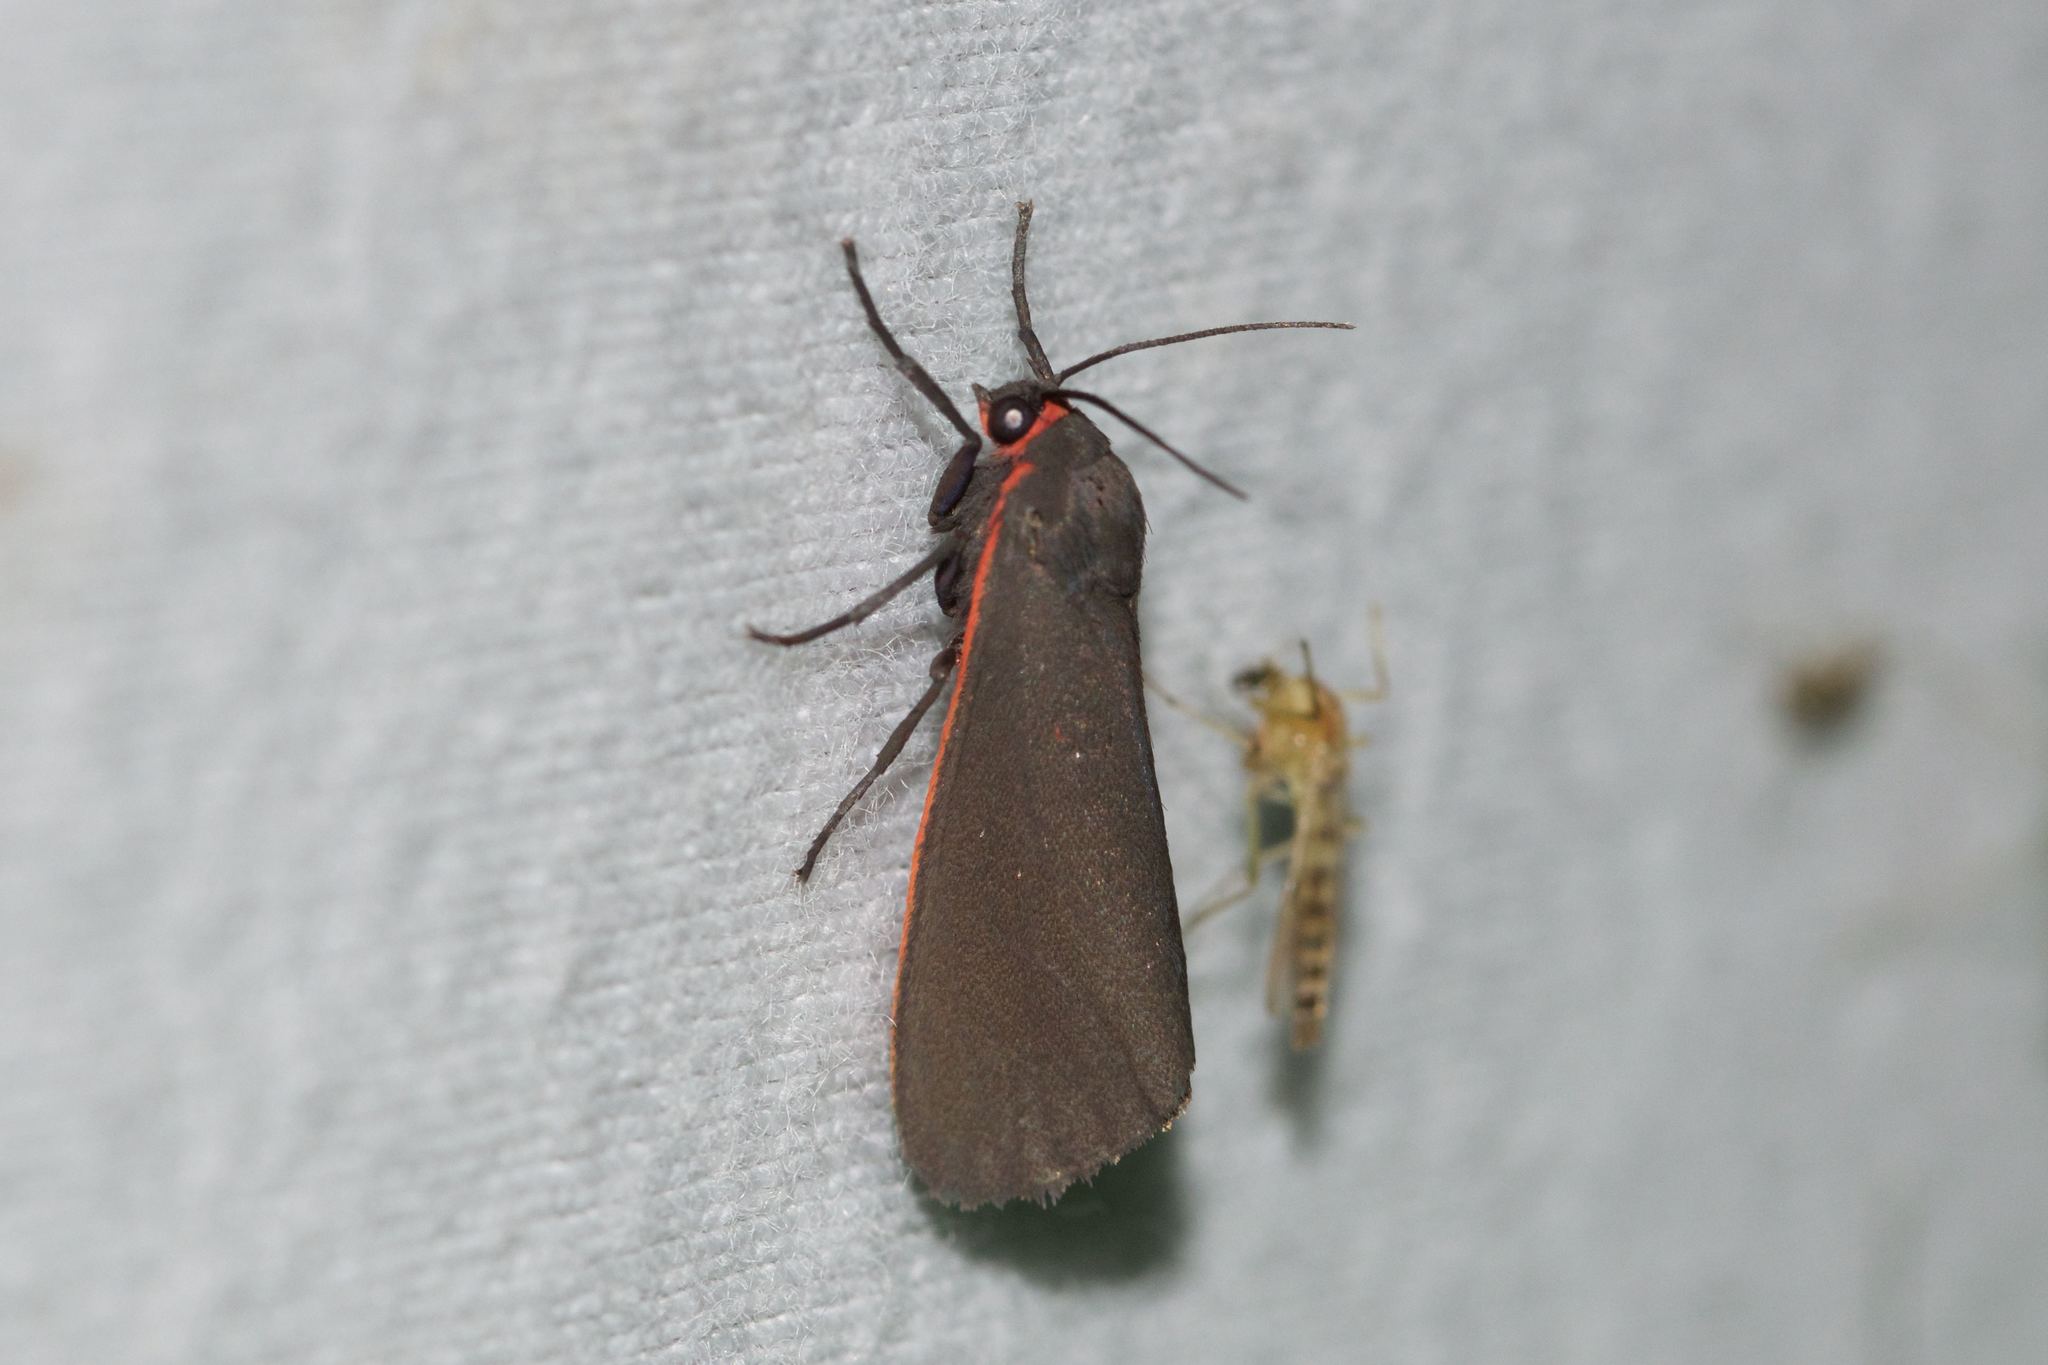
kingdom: Animalia
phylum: Arthropoda
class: Insecta
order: Lepidoptera
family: Erebidae
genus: Virbia
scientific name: Virbia laeta
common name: Joyful holomelina moth
